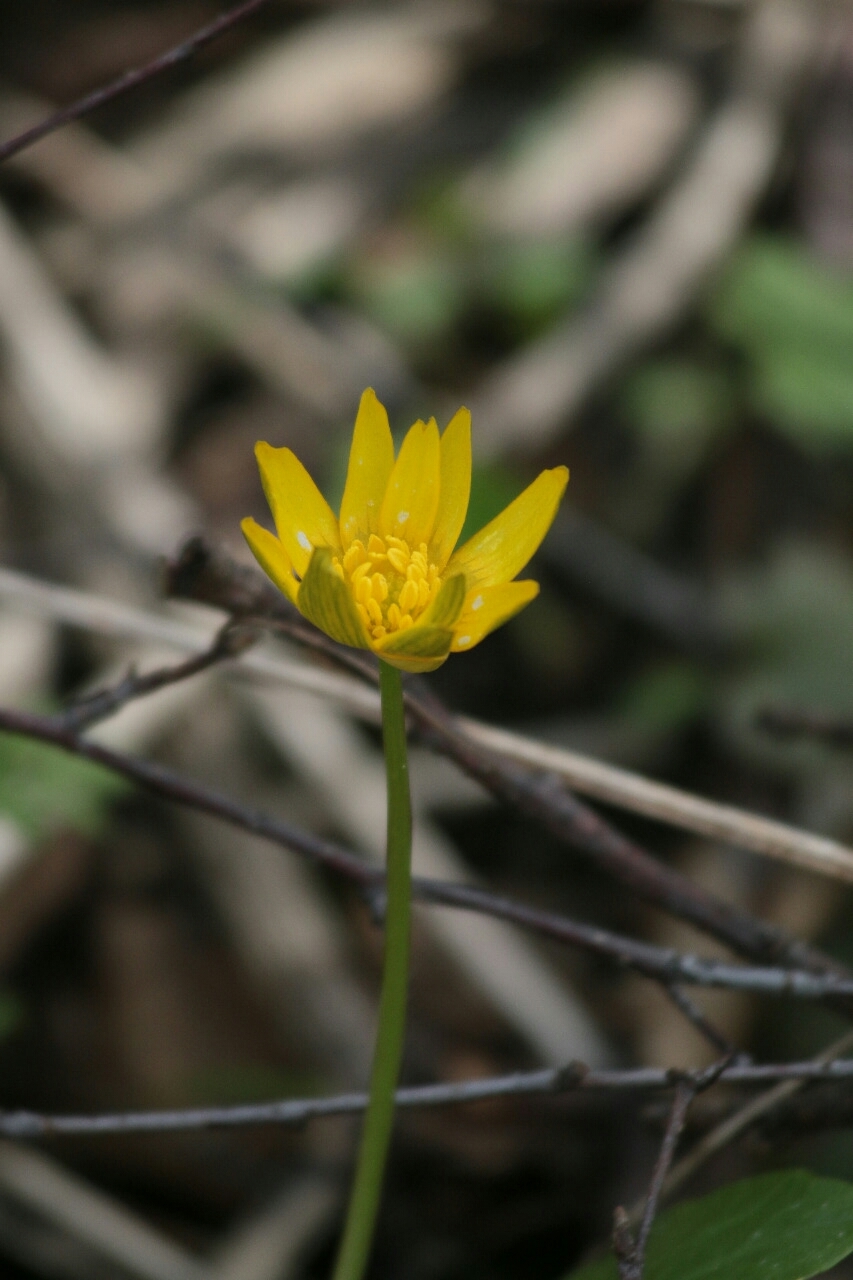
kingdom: Plantae
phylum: Tracheophyta
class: Magnoliopsida
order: Ranunculales
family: Ranunculaceae
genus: Ficaria
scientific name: Ficaria verna
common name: Lesser celandine
